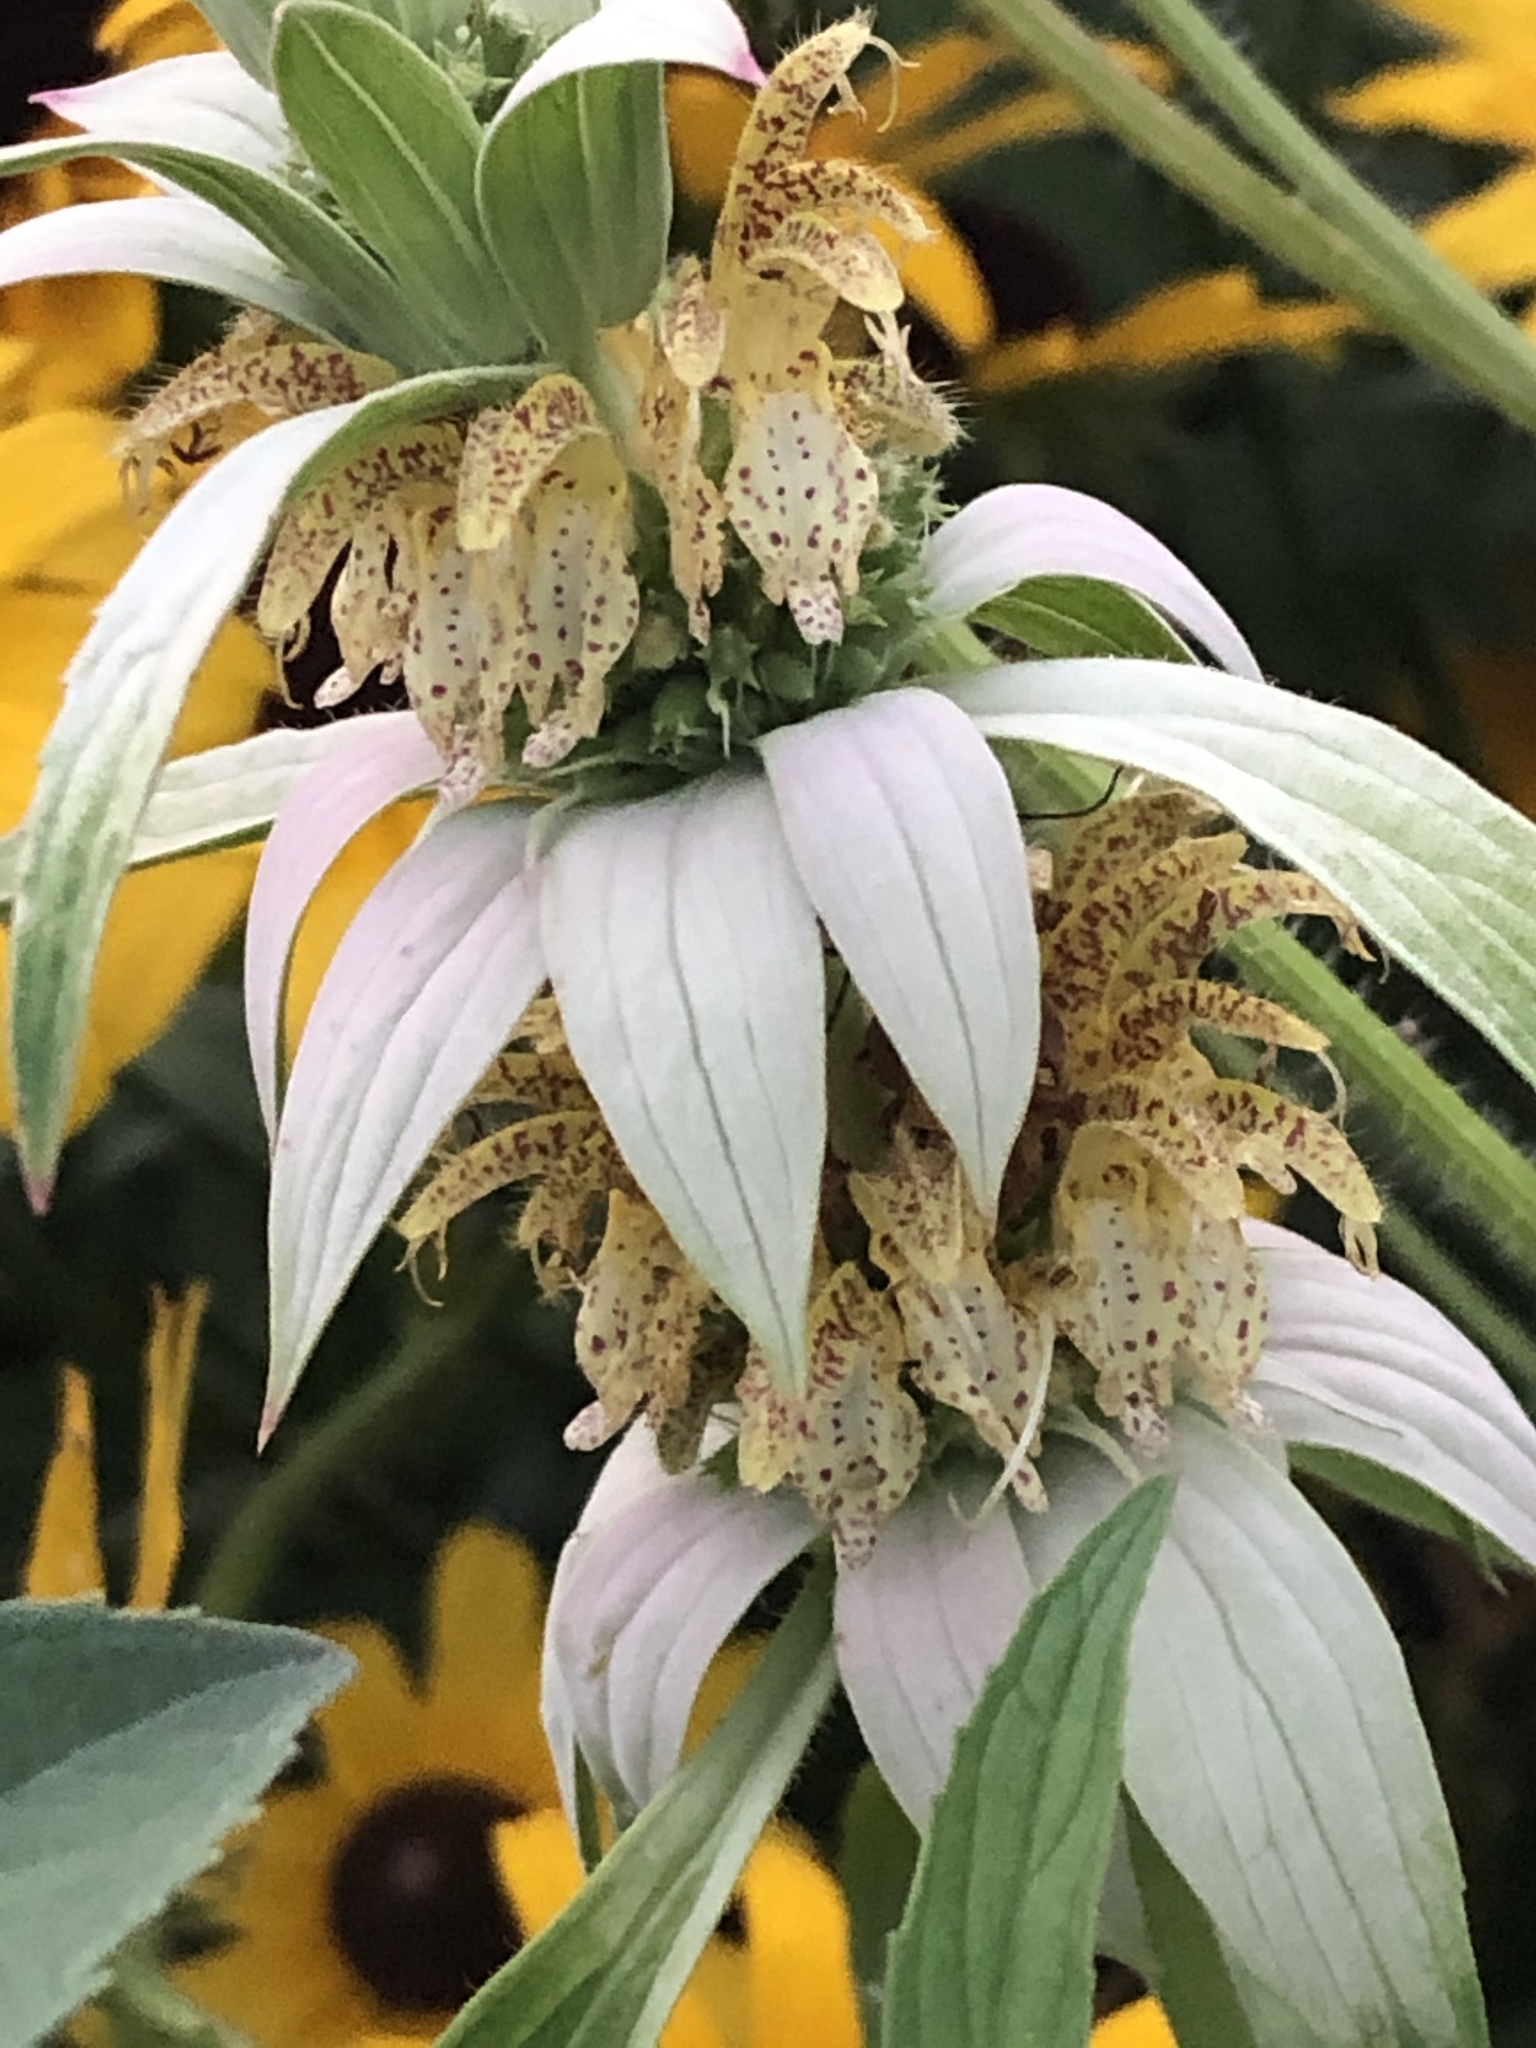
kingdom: Plantae
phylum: Tracheophyta
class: Magnoliopsida
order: Lamiales
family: Lamiaceae
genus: Monarda
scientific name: Monarda punctata
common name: Dotted monarda
